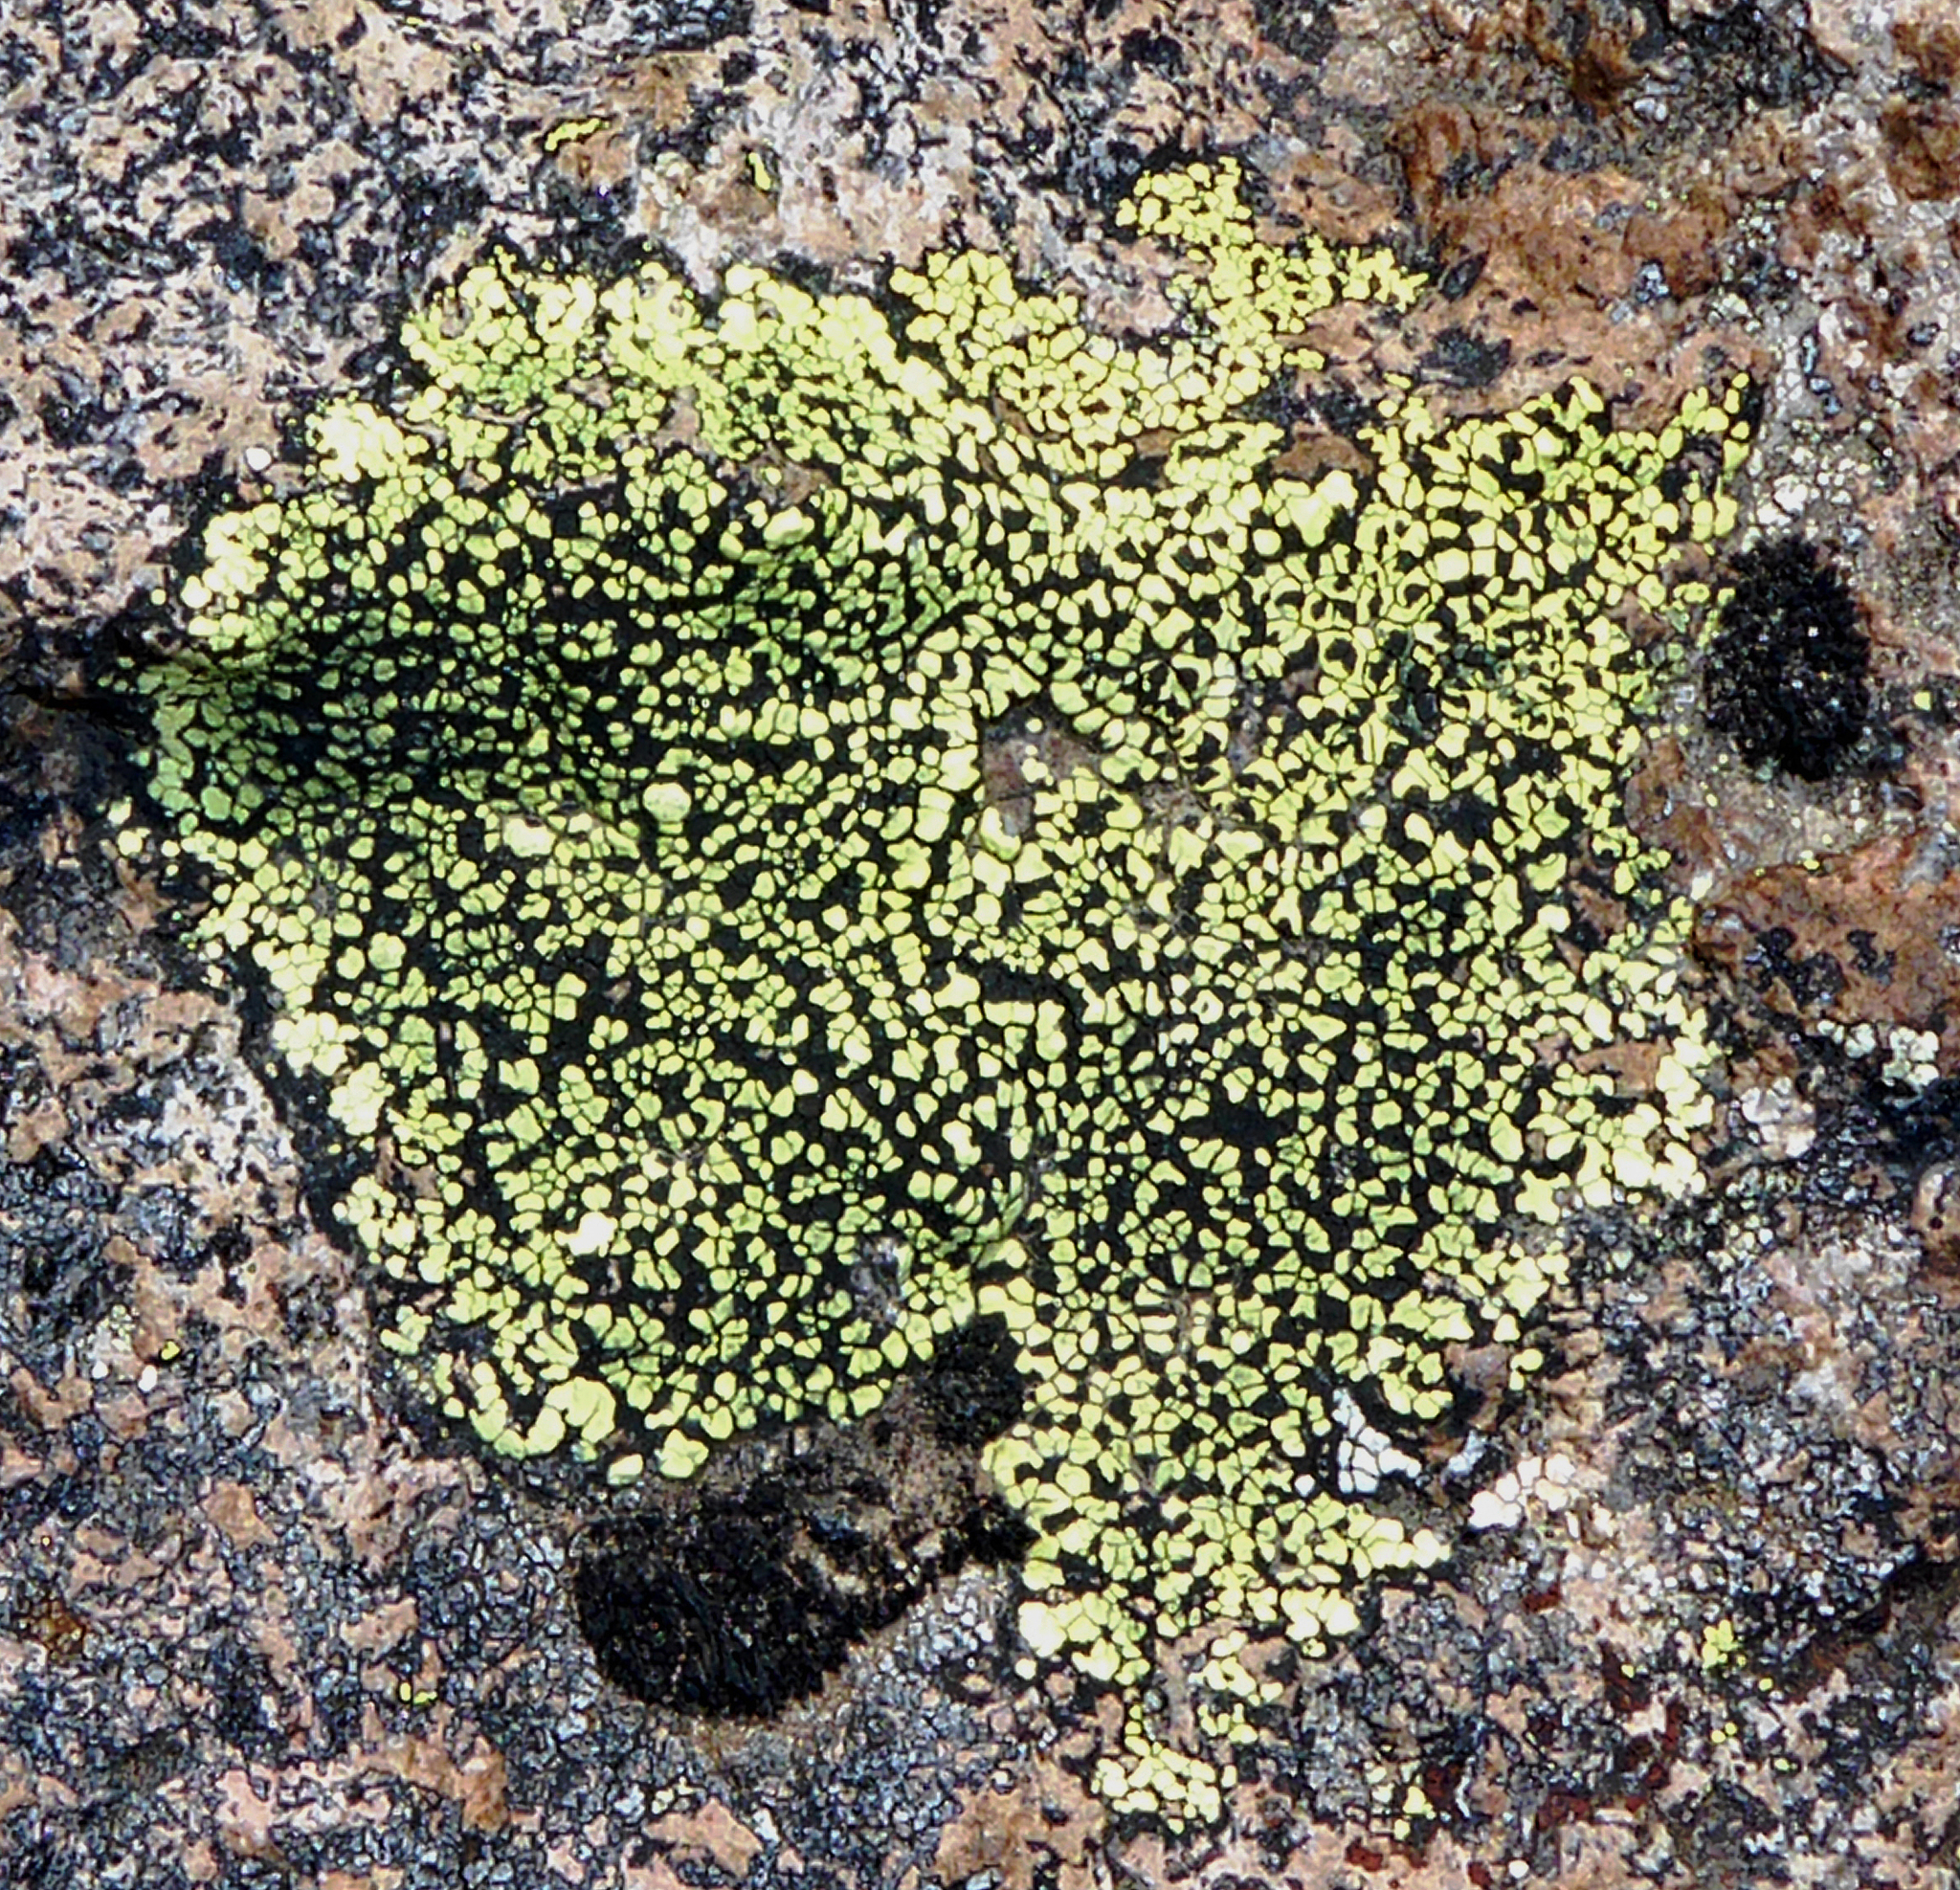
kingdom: Fungi
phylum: Ascomycota
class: Lecanoromycetes
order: Rhizocarpales
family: Rhizocarpaceae
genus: Rhizocarpon
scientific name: Rhizocarpon geographicum
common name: Yellow map lichen
